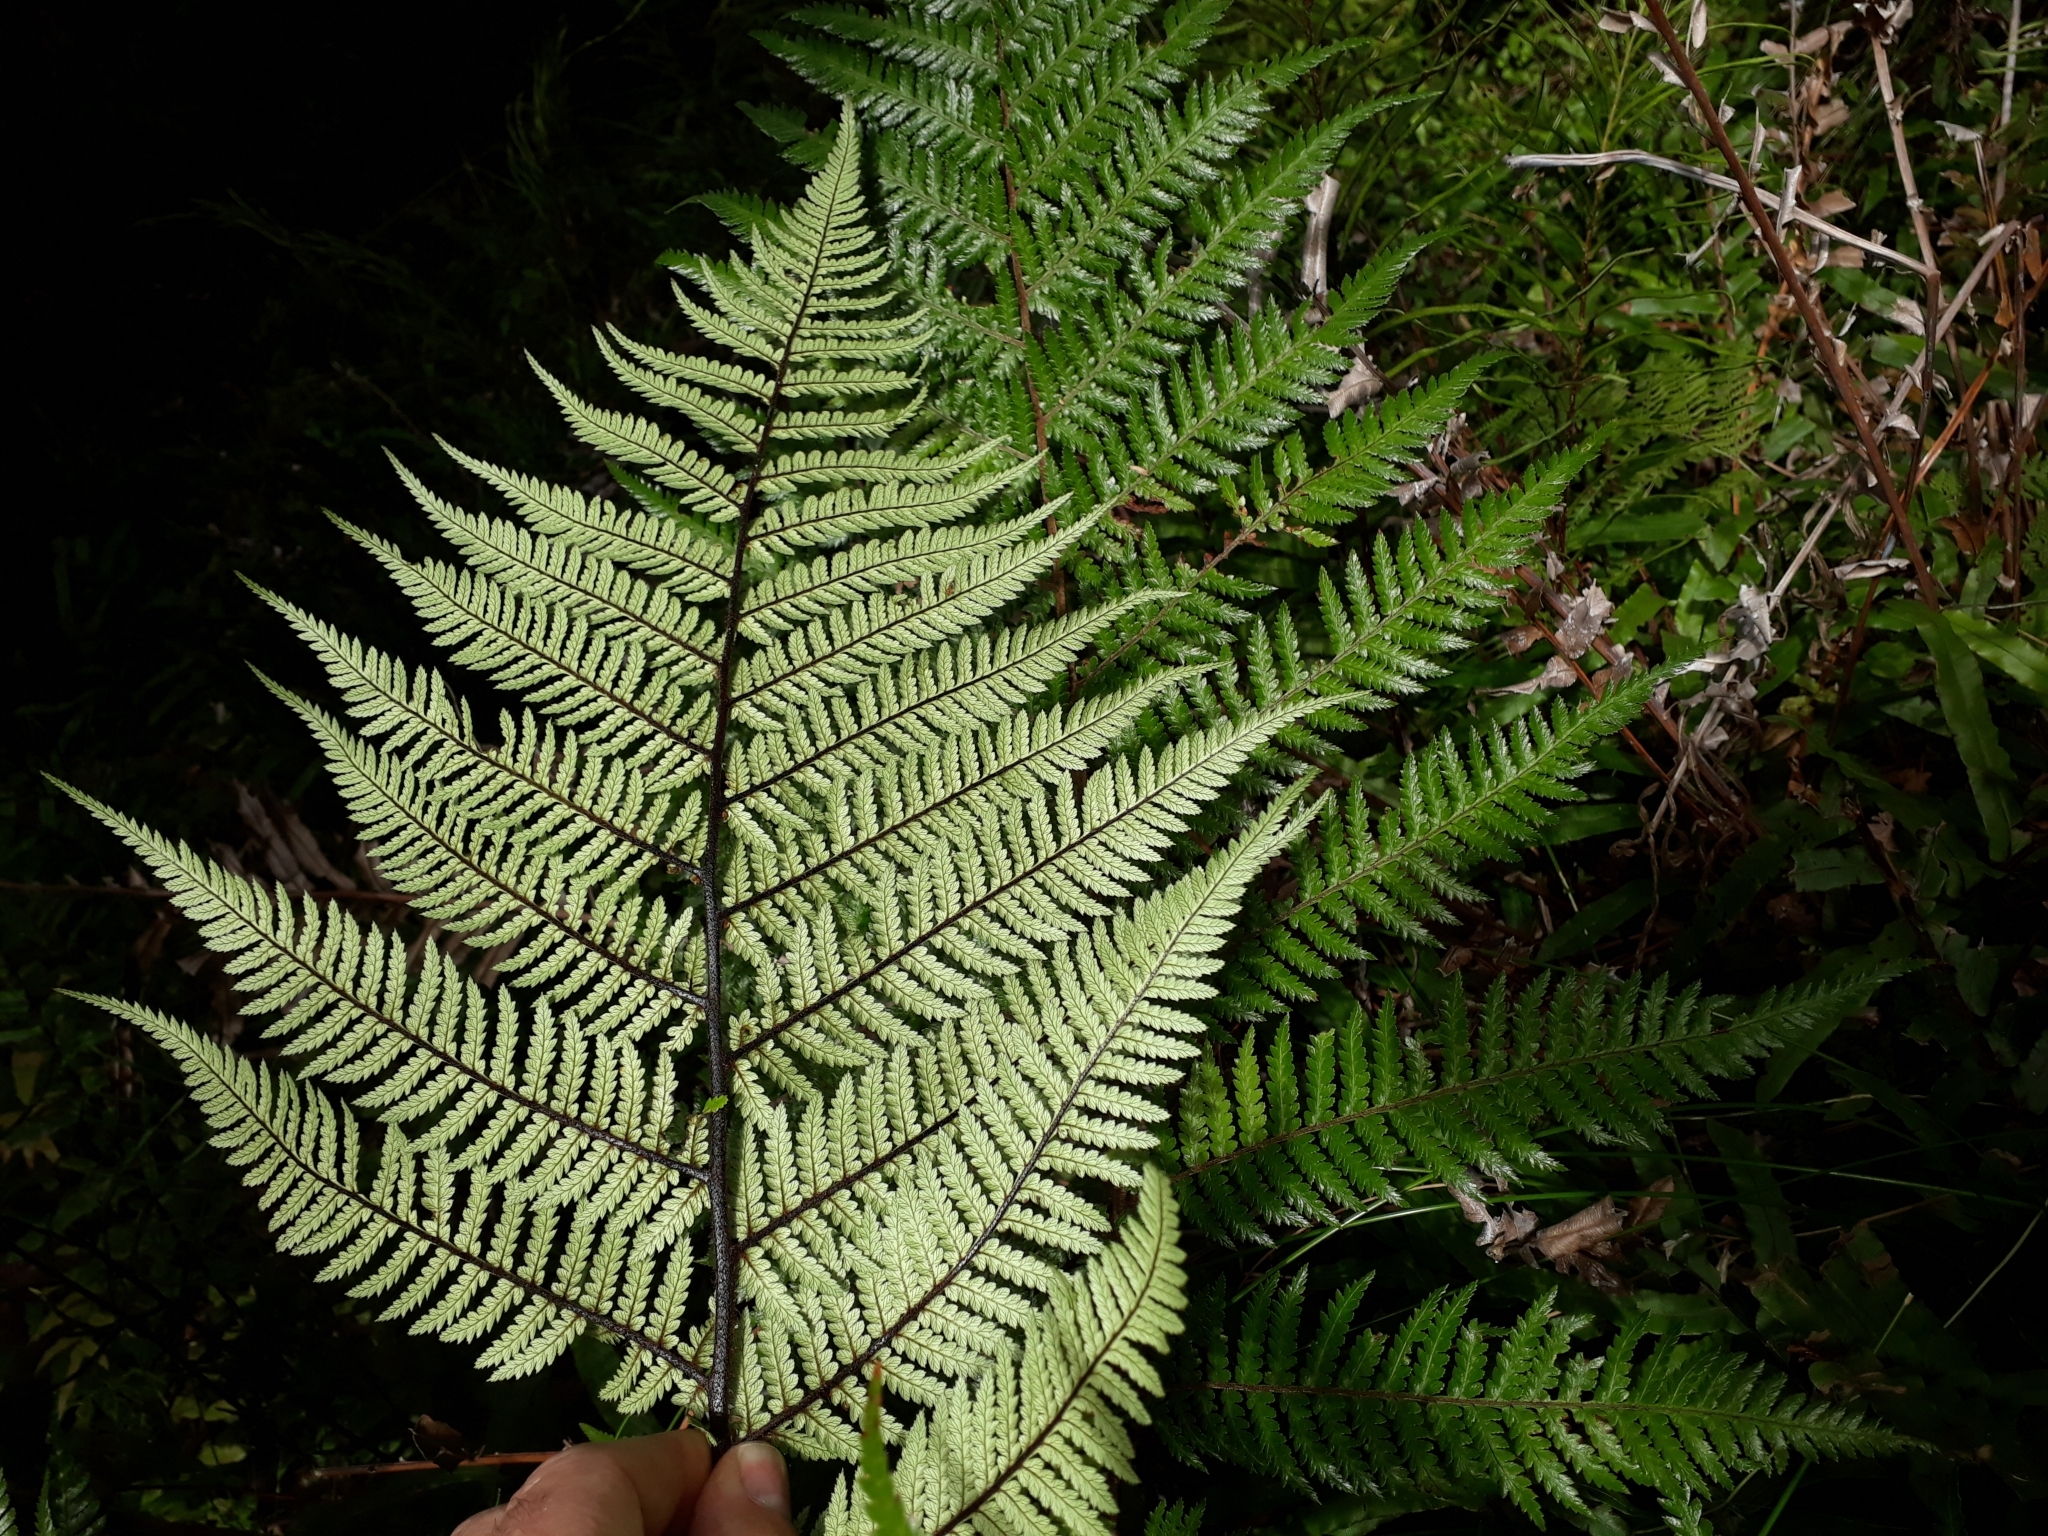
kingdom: Plantae
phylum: Tracheophyta
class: Polypodiopsida
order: Cyatheales
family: Dicksoniaceae
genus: Dicksonia
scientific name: Dicksonia squarrosa
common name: Hard treefern
